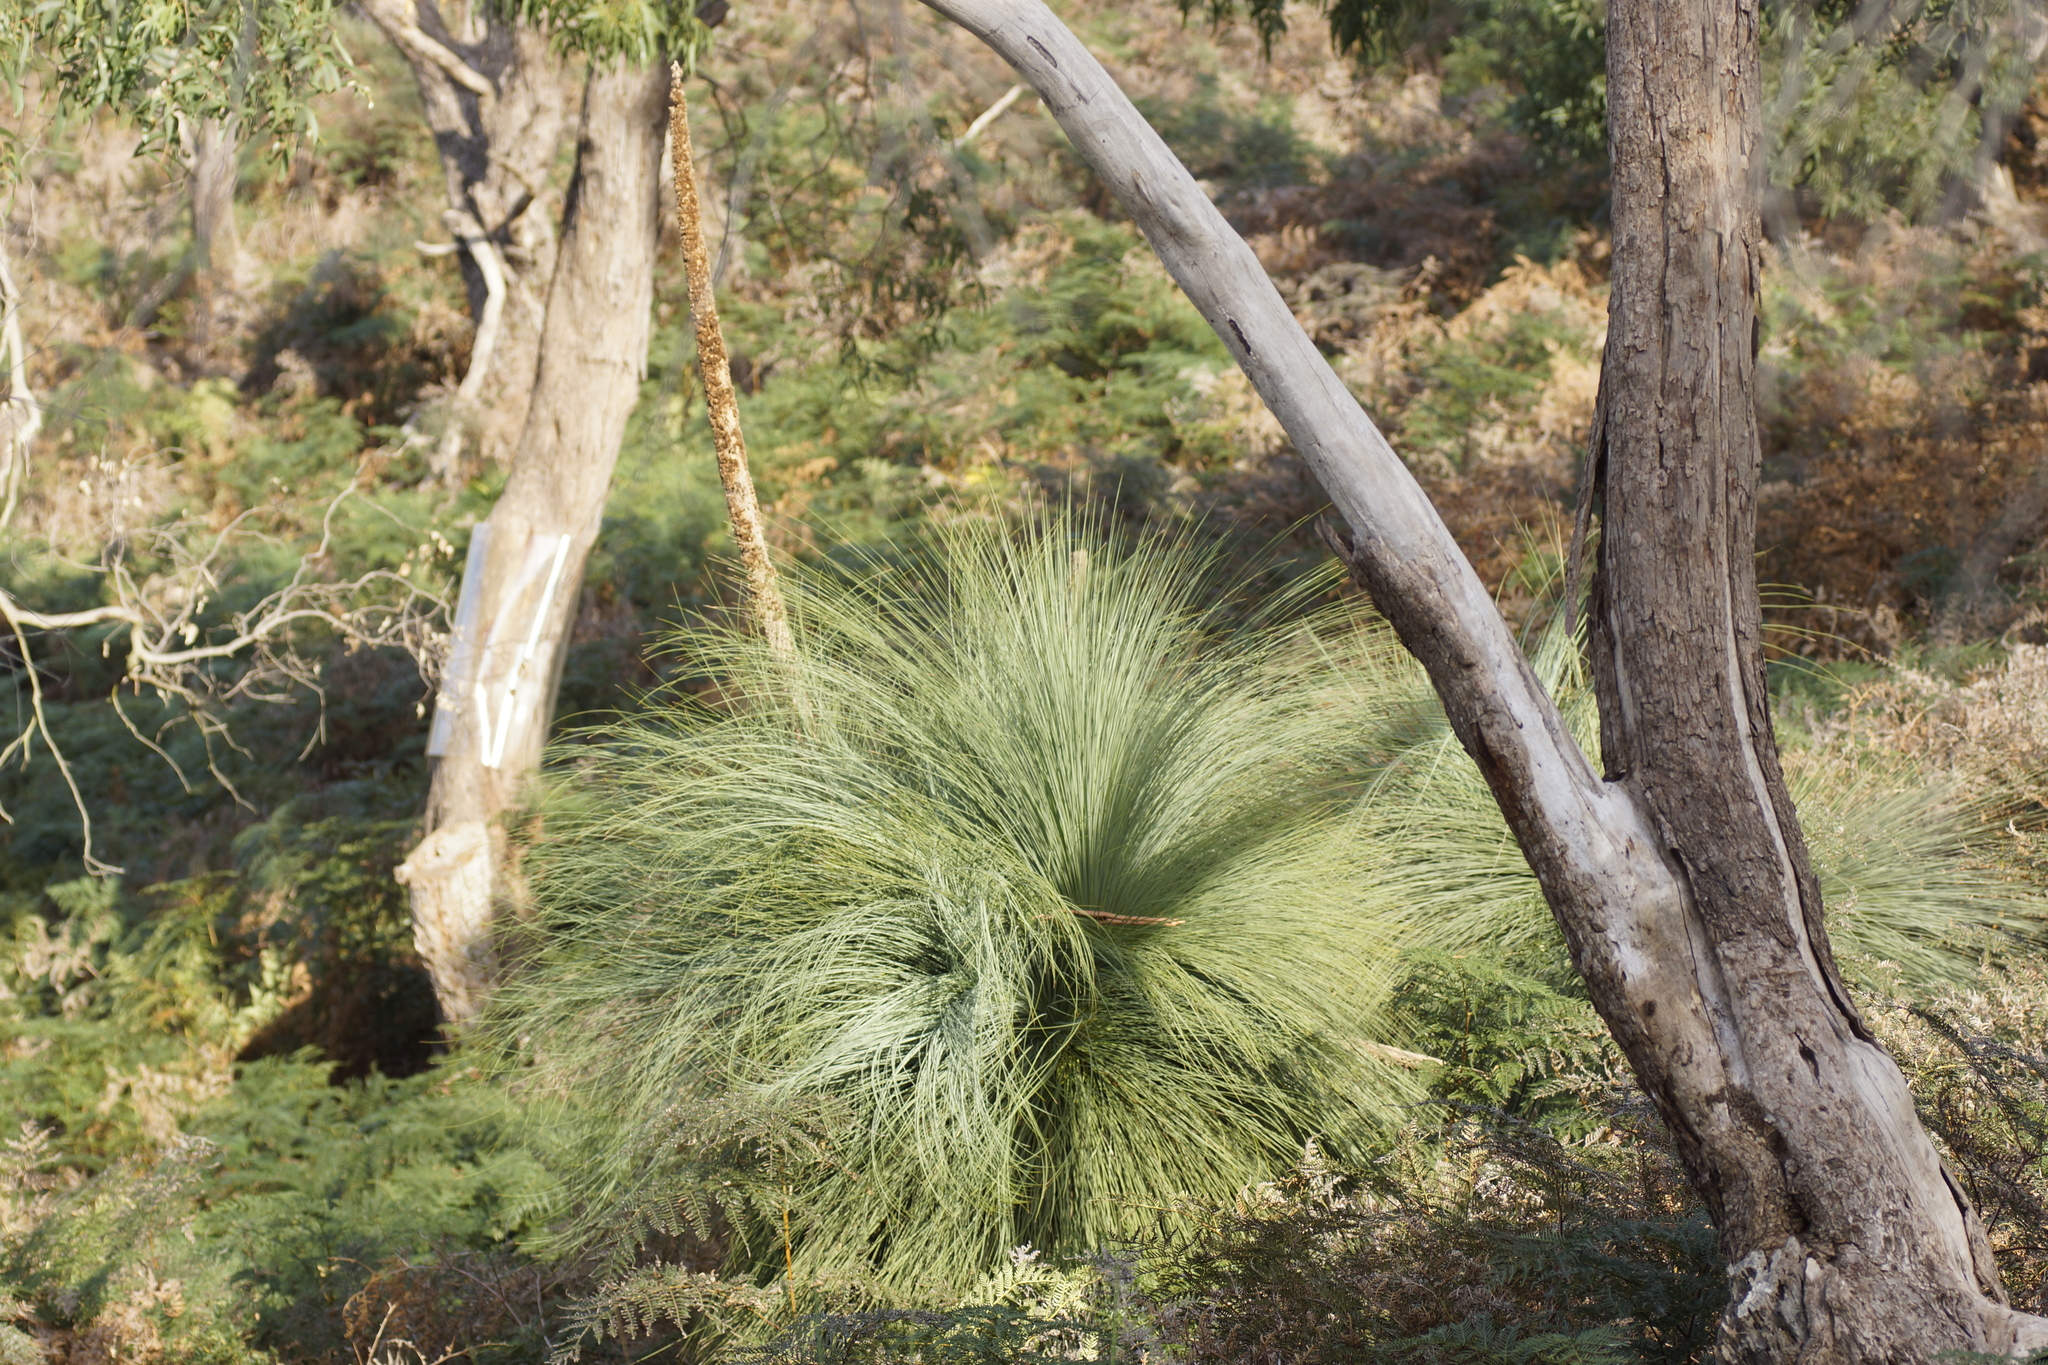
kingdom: Plantae
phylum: Tracheophyta
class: Liliopsida
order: Asparagales
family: Asphodelaceae
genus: Xanthorrhoea
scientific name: Xanthorrhoea australis
